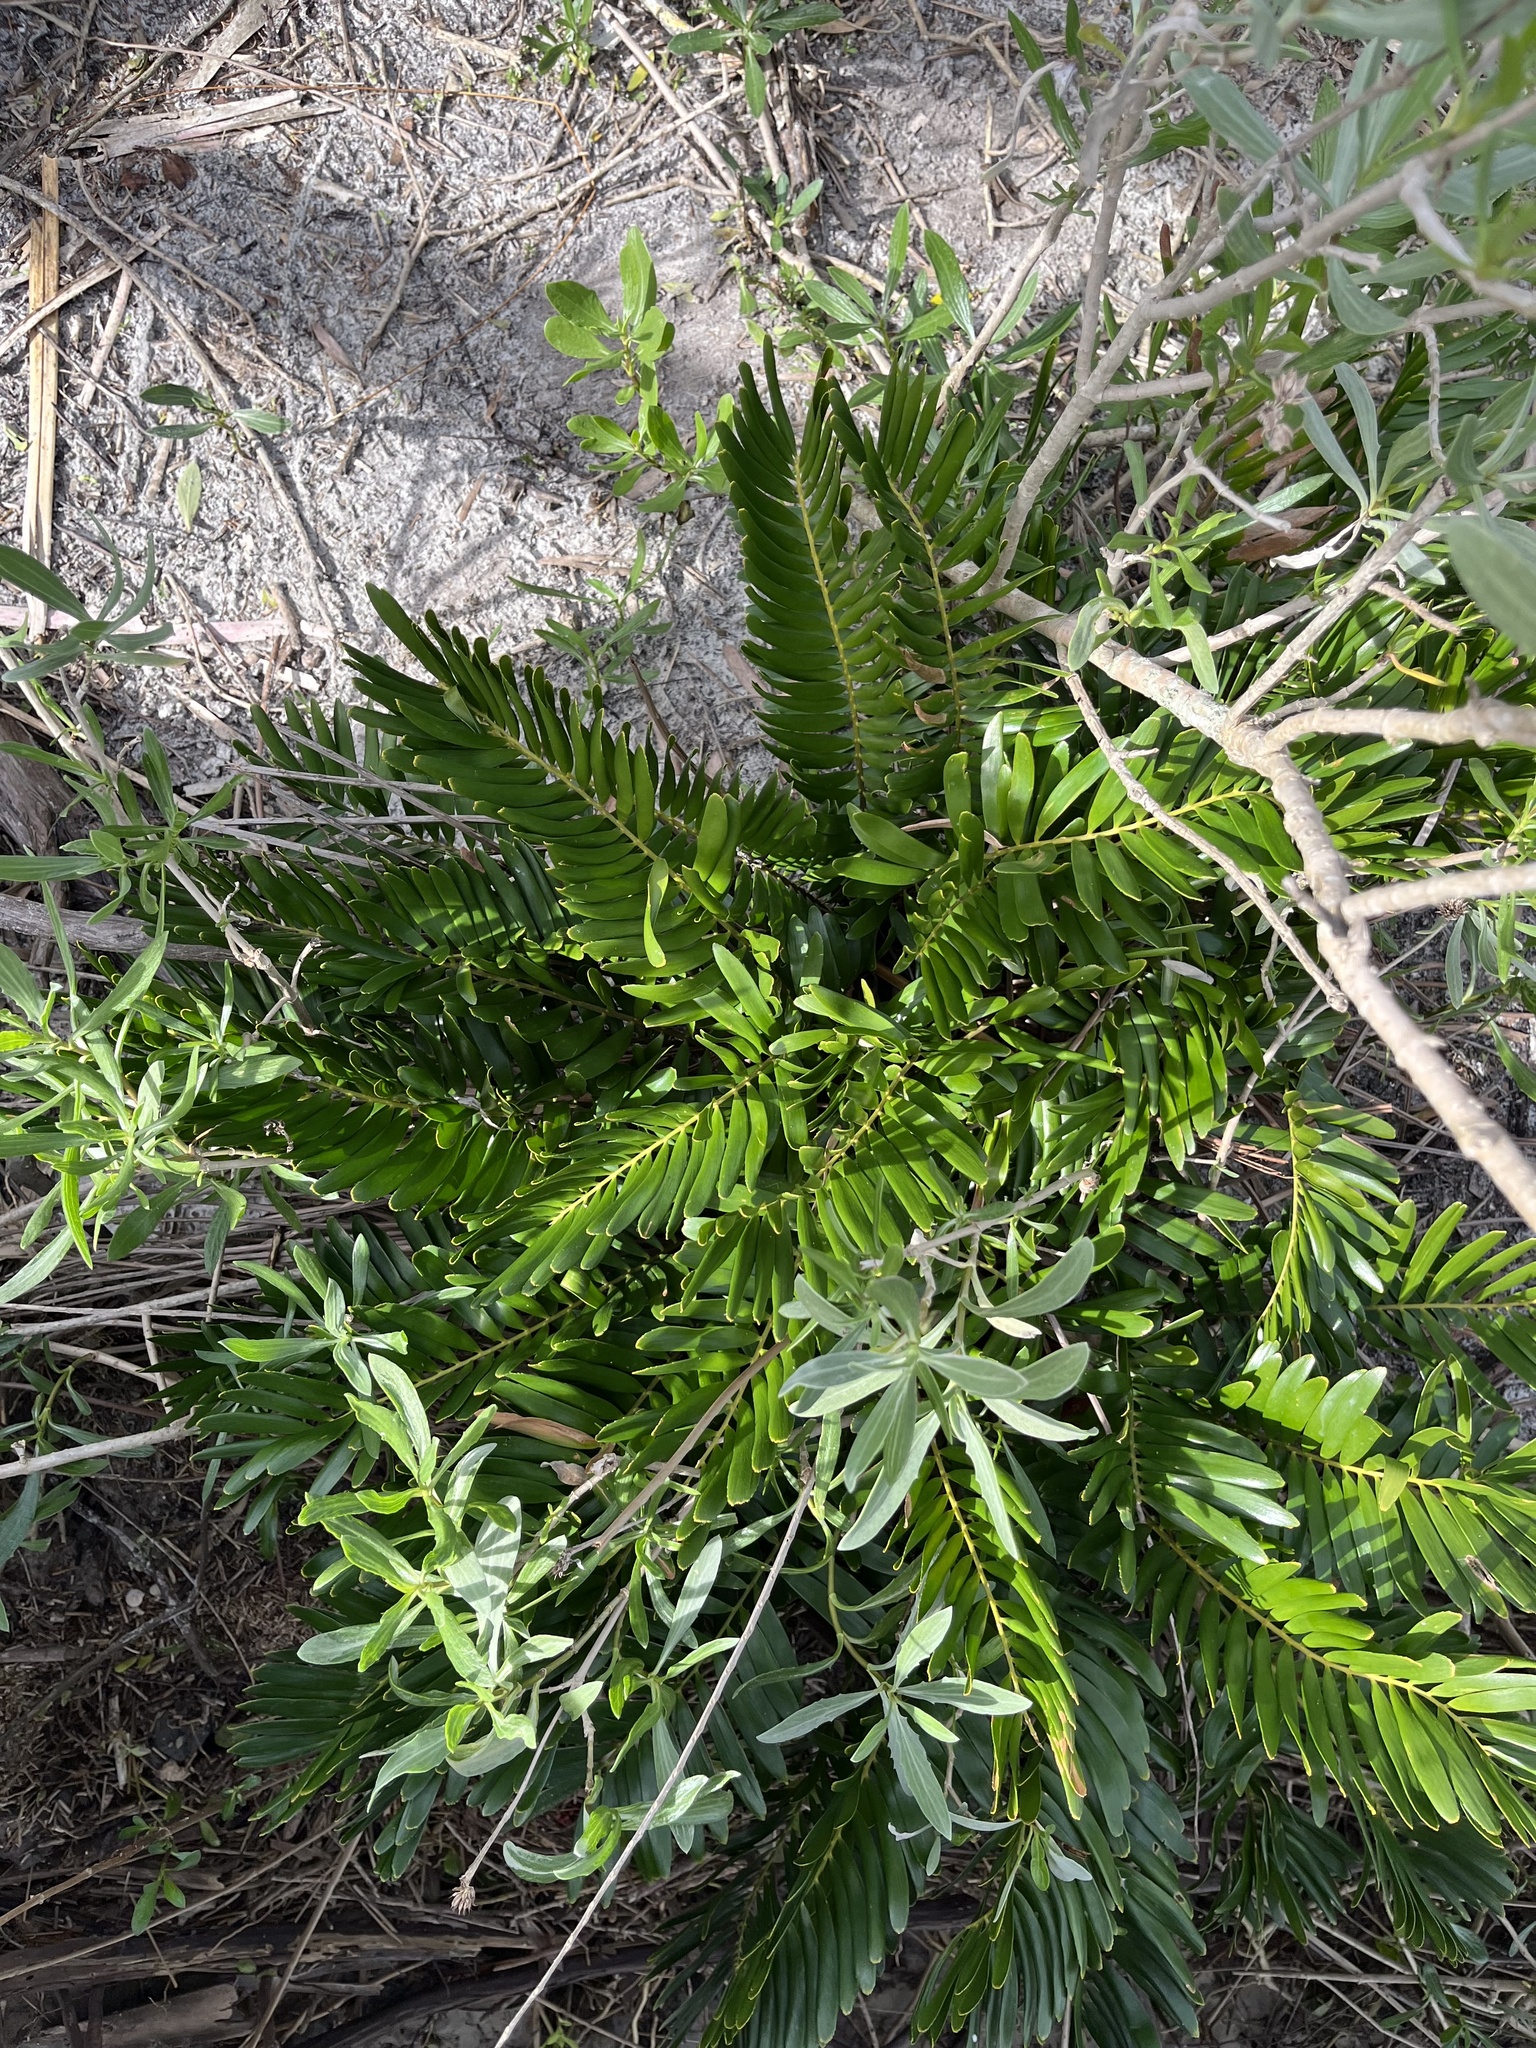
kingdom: Plantae
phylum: Tracheophyta
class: Cycadopsida
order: Cycadales
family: Zamiaceae
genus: Zamia
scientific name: Zamia integrifolia
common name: Florida arrowroot
